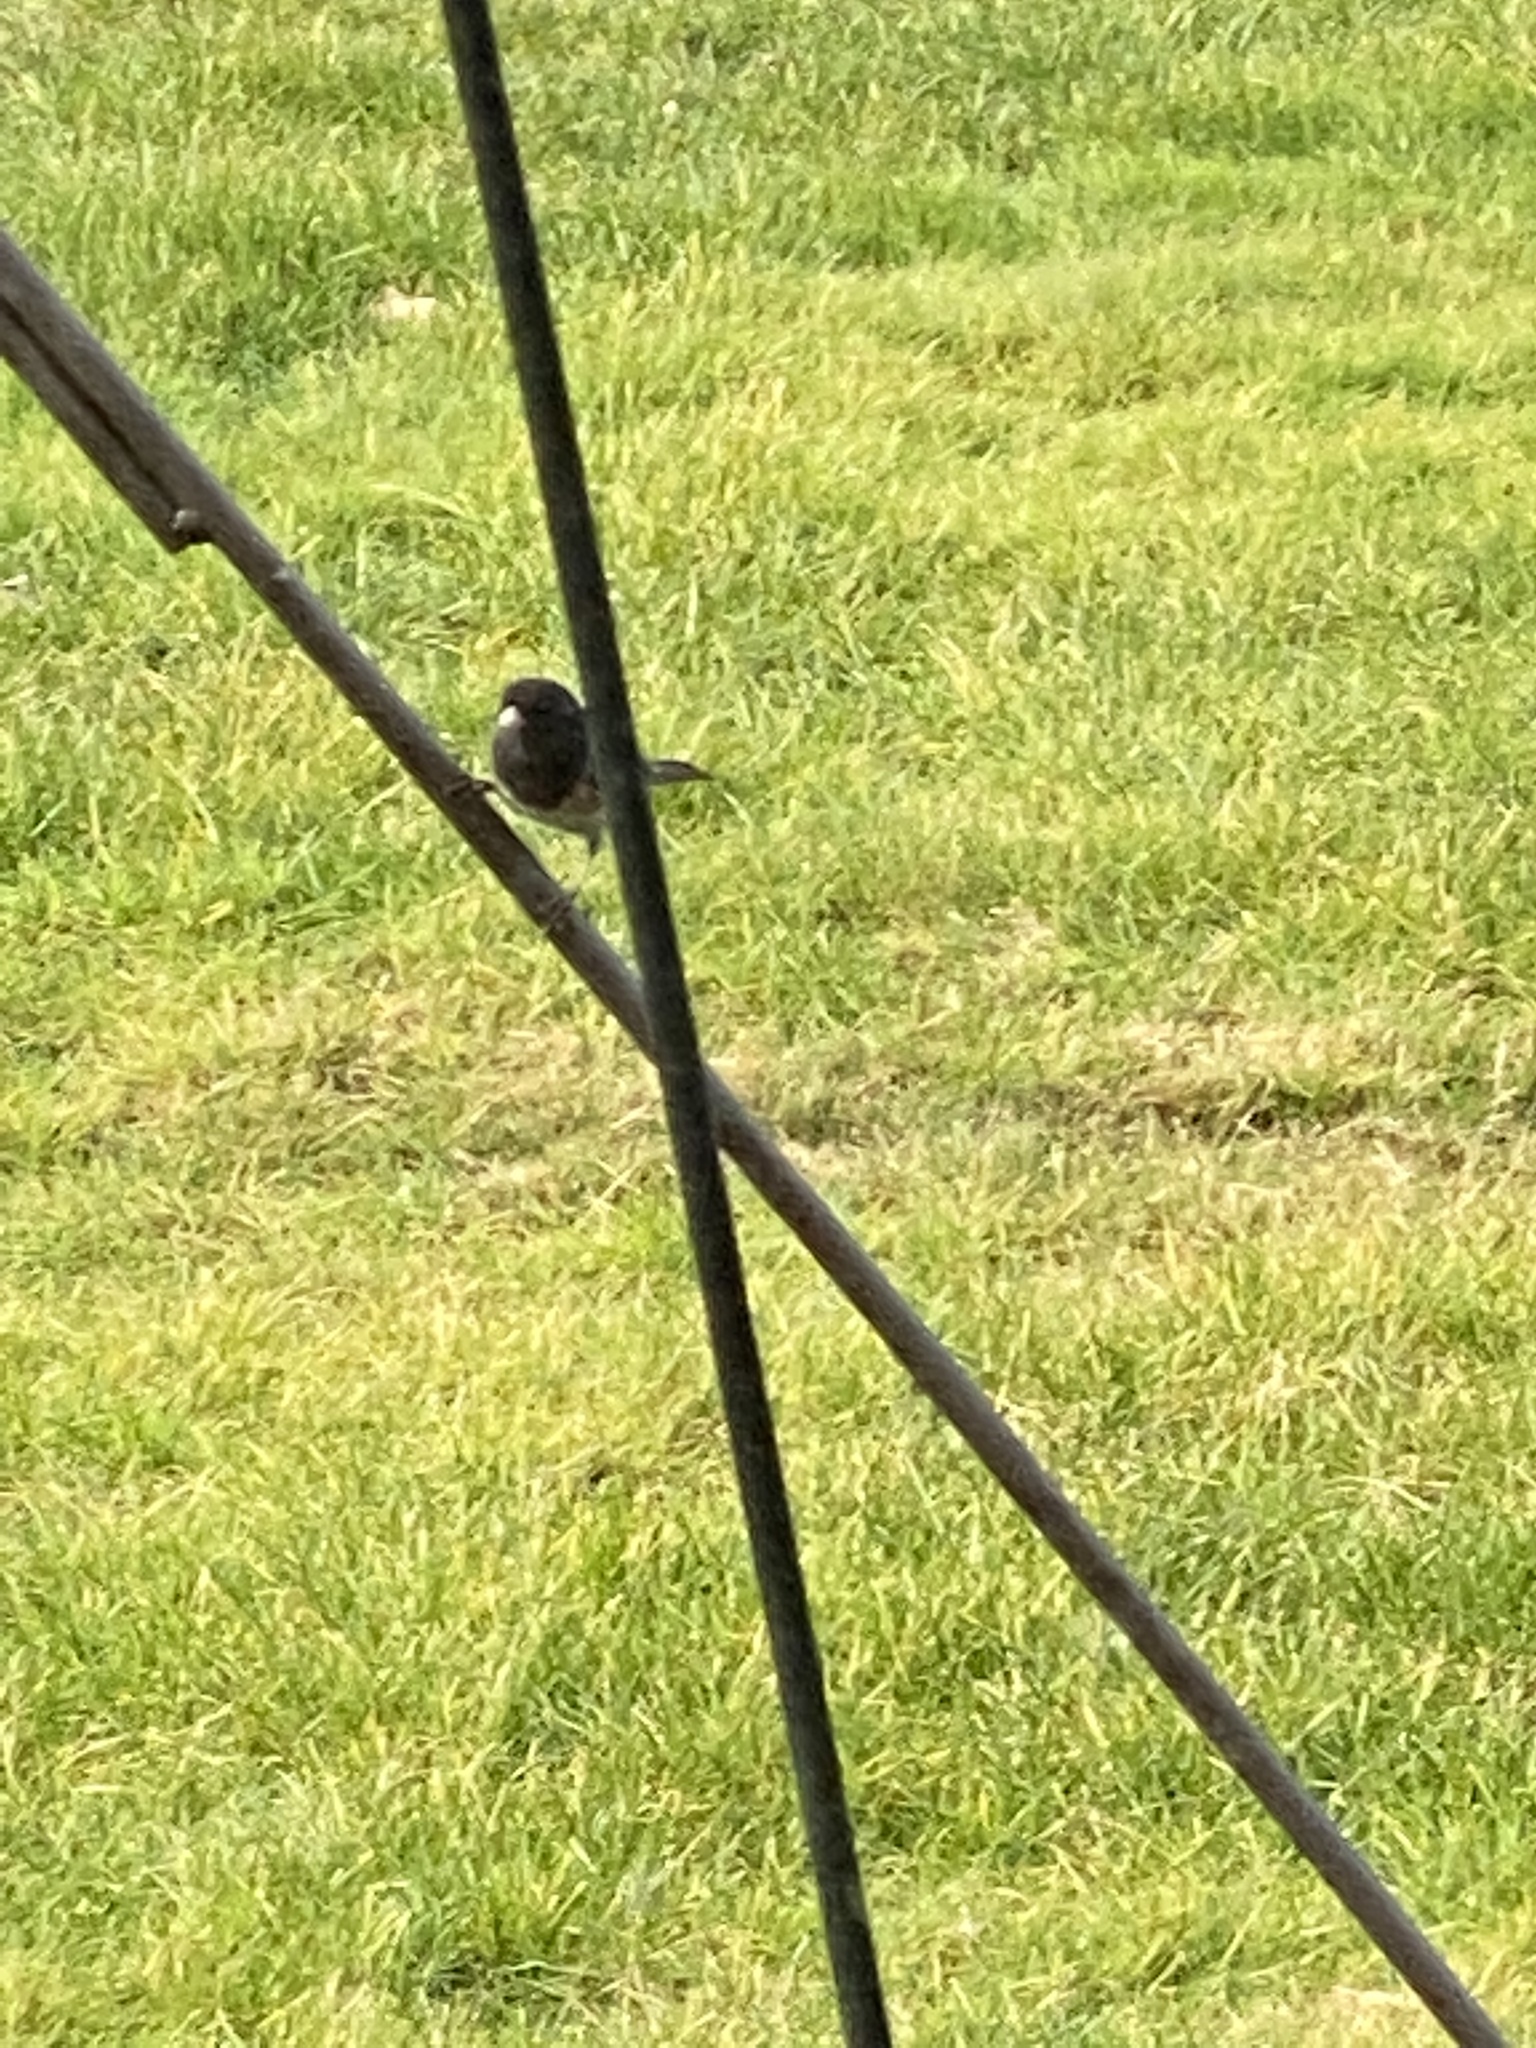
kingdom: Animalia
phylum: Chordata
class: Aves
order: Passeriformes
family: Passerellidae
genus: Junco
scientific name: Junco hyemalis
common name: Dark-eyed junco
